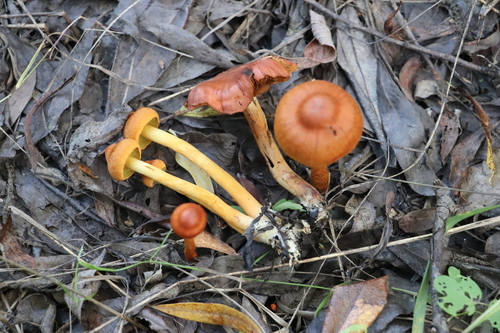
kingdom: Fungi
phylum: Basidiomycota
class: Agaricomycetes
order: Agaricales
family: Cortinariaceae
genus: Cortinarius
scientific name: Cortinarius uliginosus
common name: Marsh webcap
